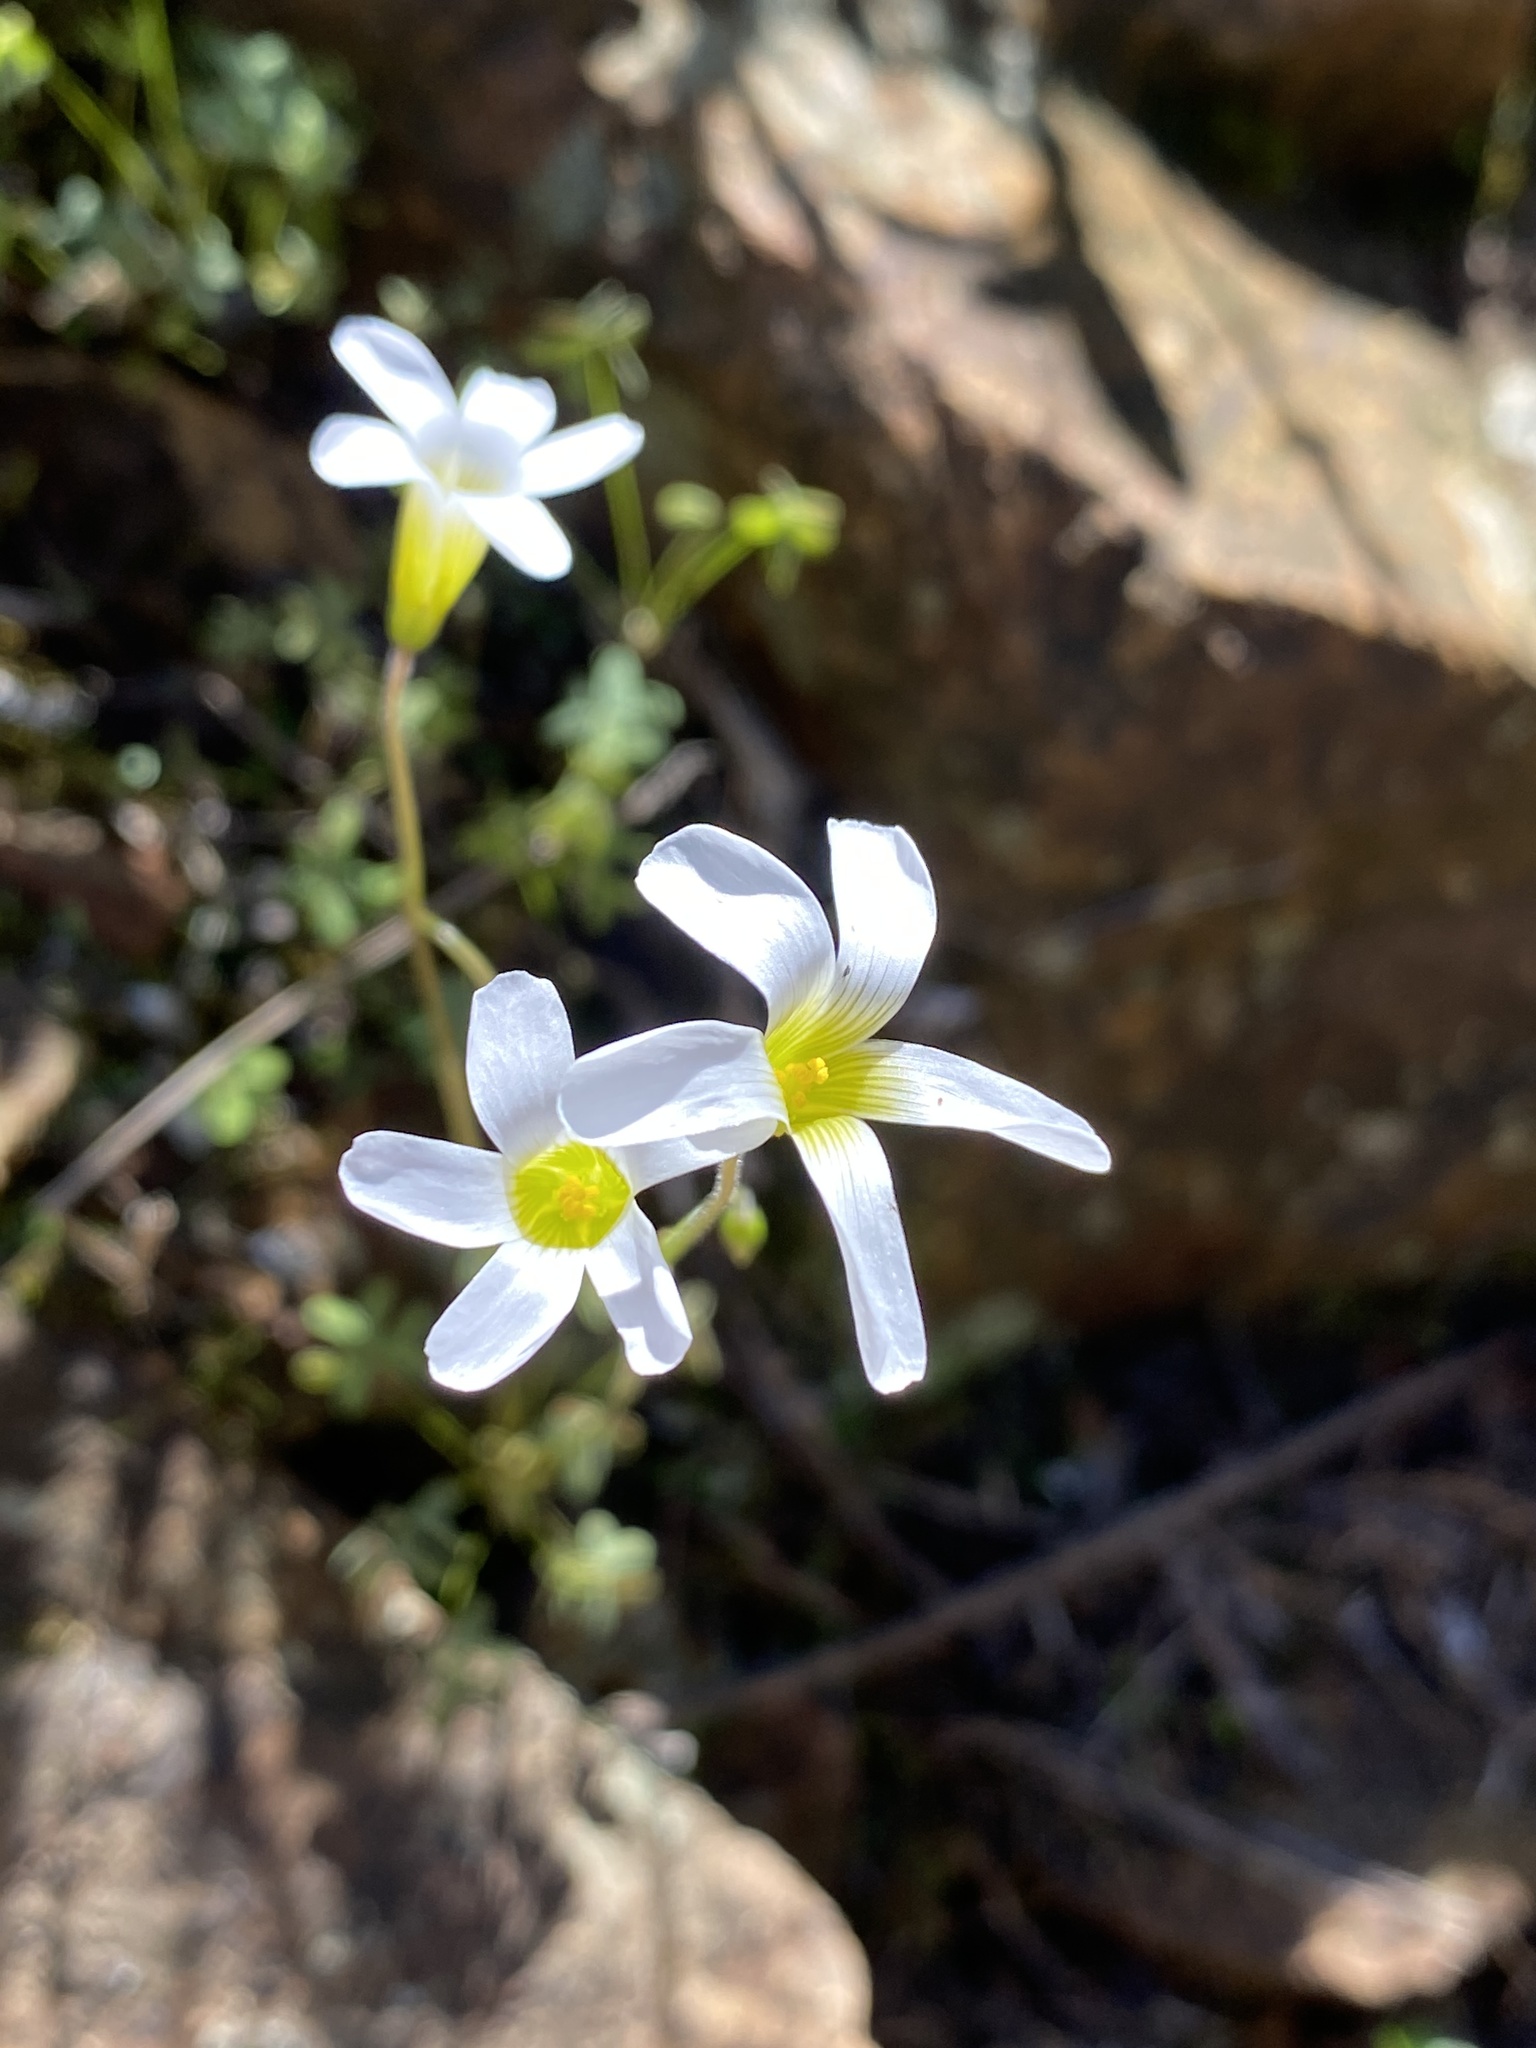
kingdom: Plantae
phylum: Tracheophyta
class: Magnoliopsida
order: Oxalidales
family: Oxalidaceae
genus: Oxalis
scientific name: Oxalis stellata
